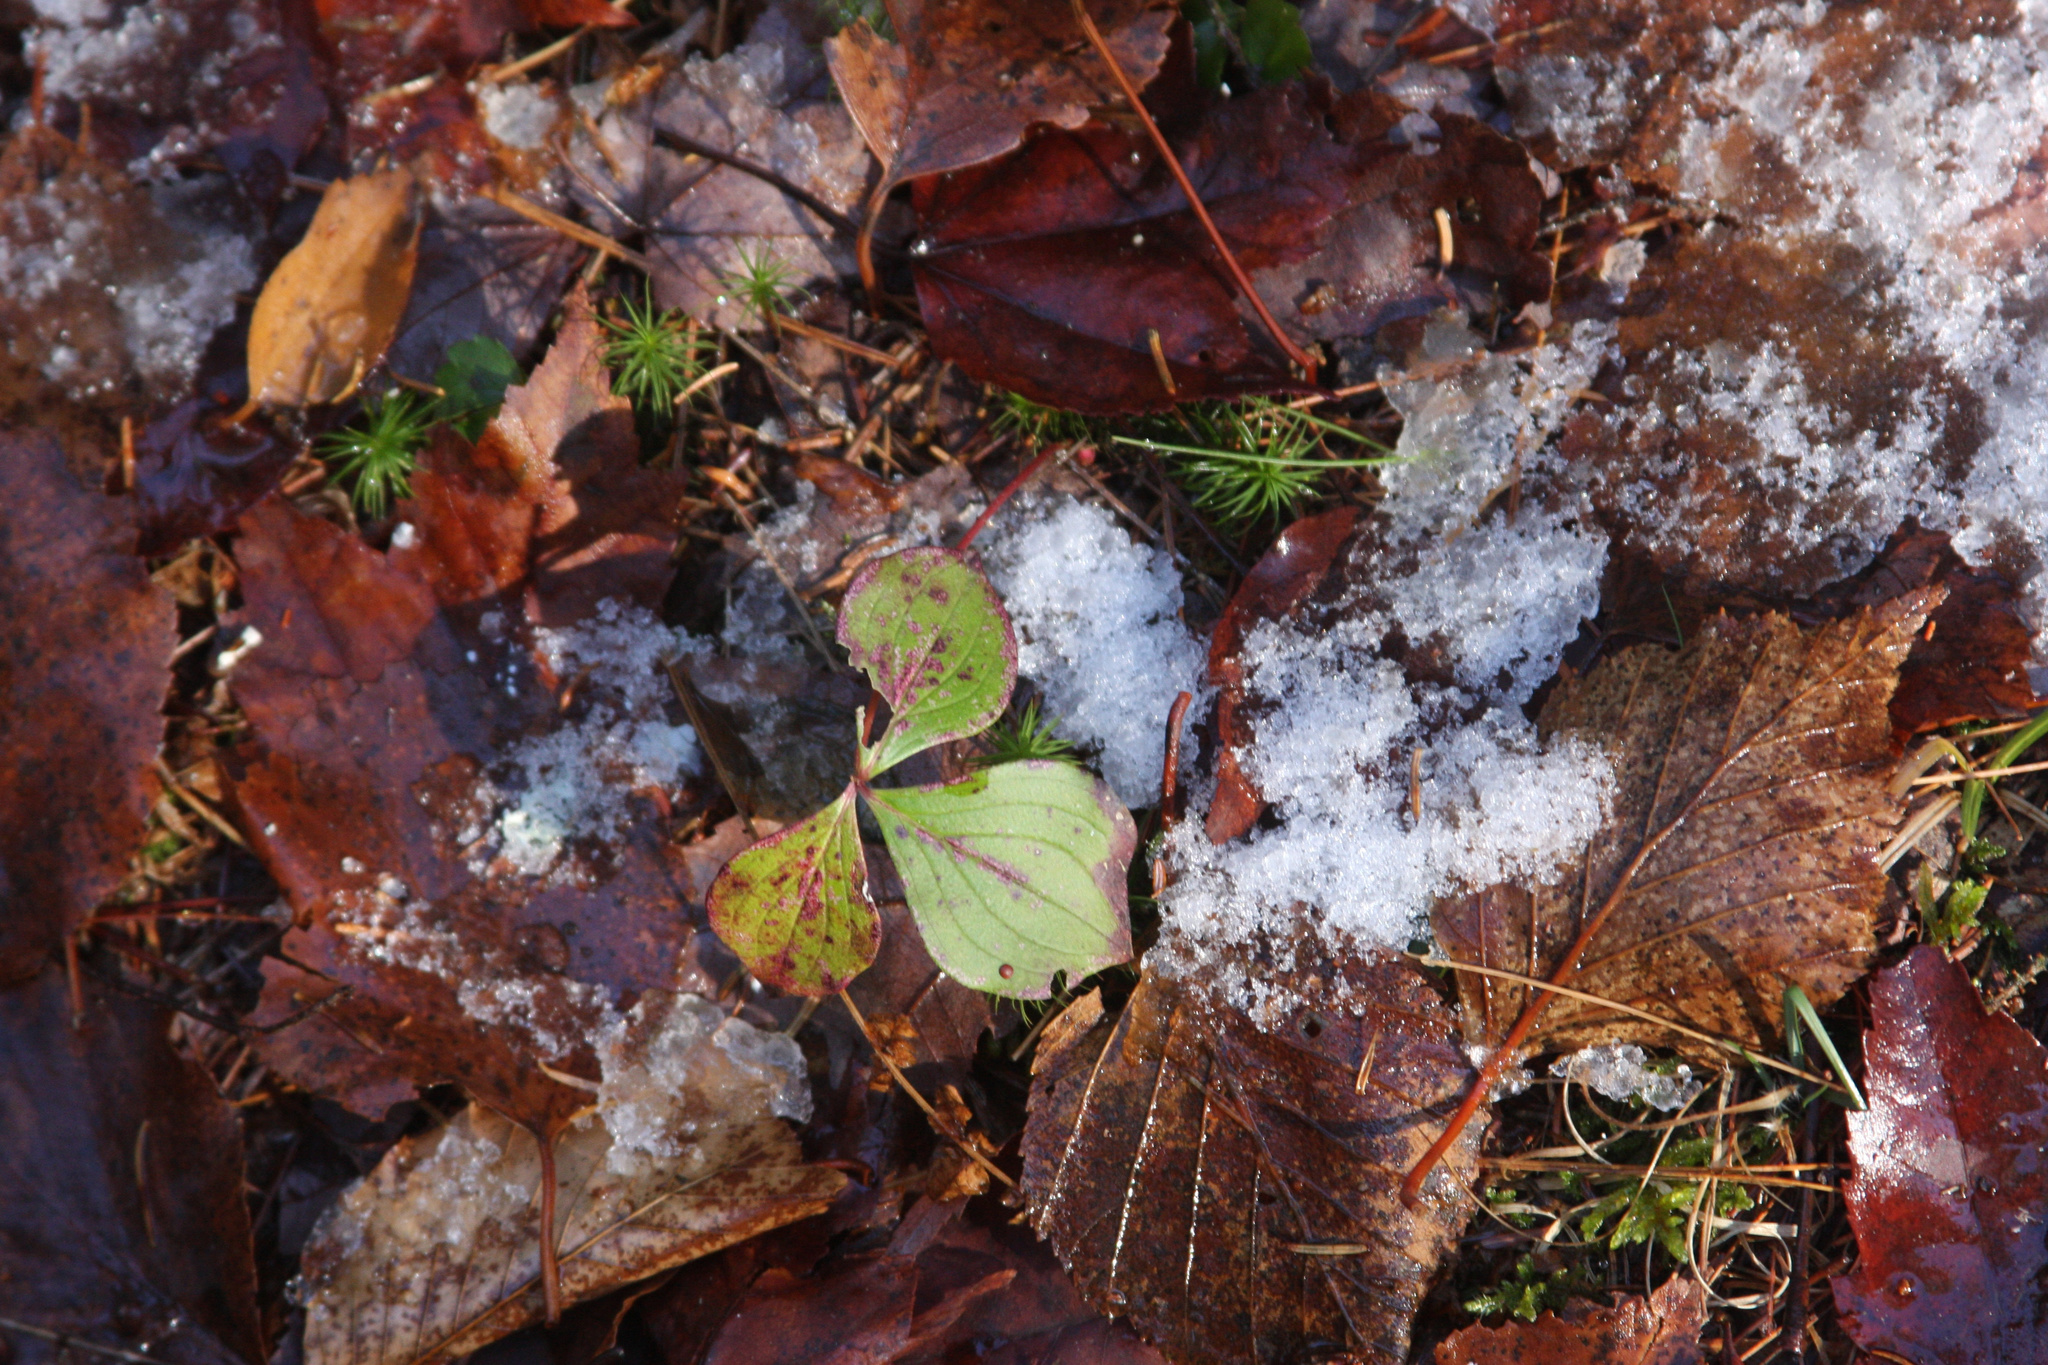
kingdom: Plantae
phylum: Tracheophyta
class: Magnoliopsida
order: Cornales
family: Cornaceae
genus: Cornus
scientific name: Cornus canadensis
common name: Creeping dogwood
